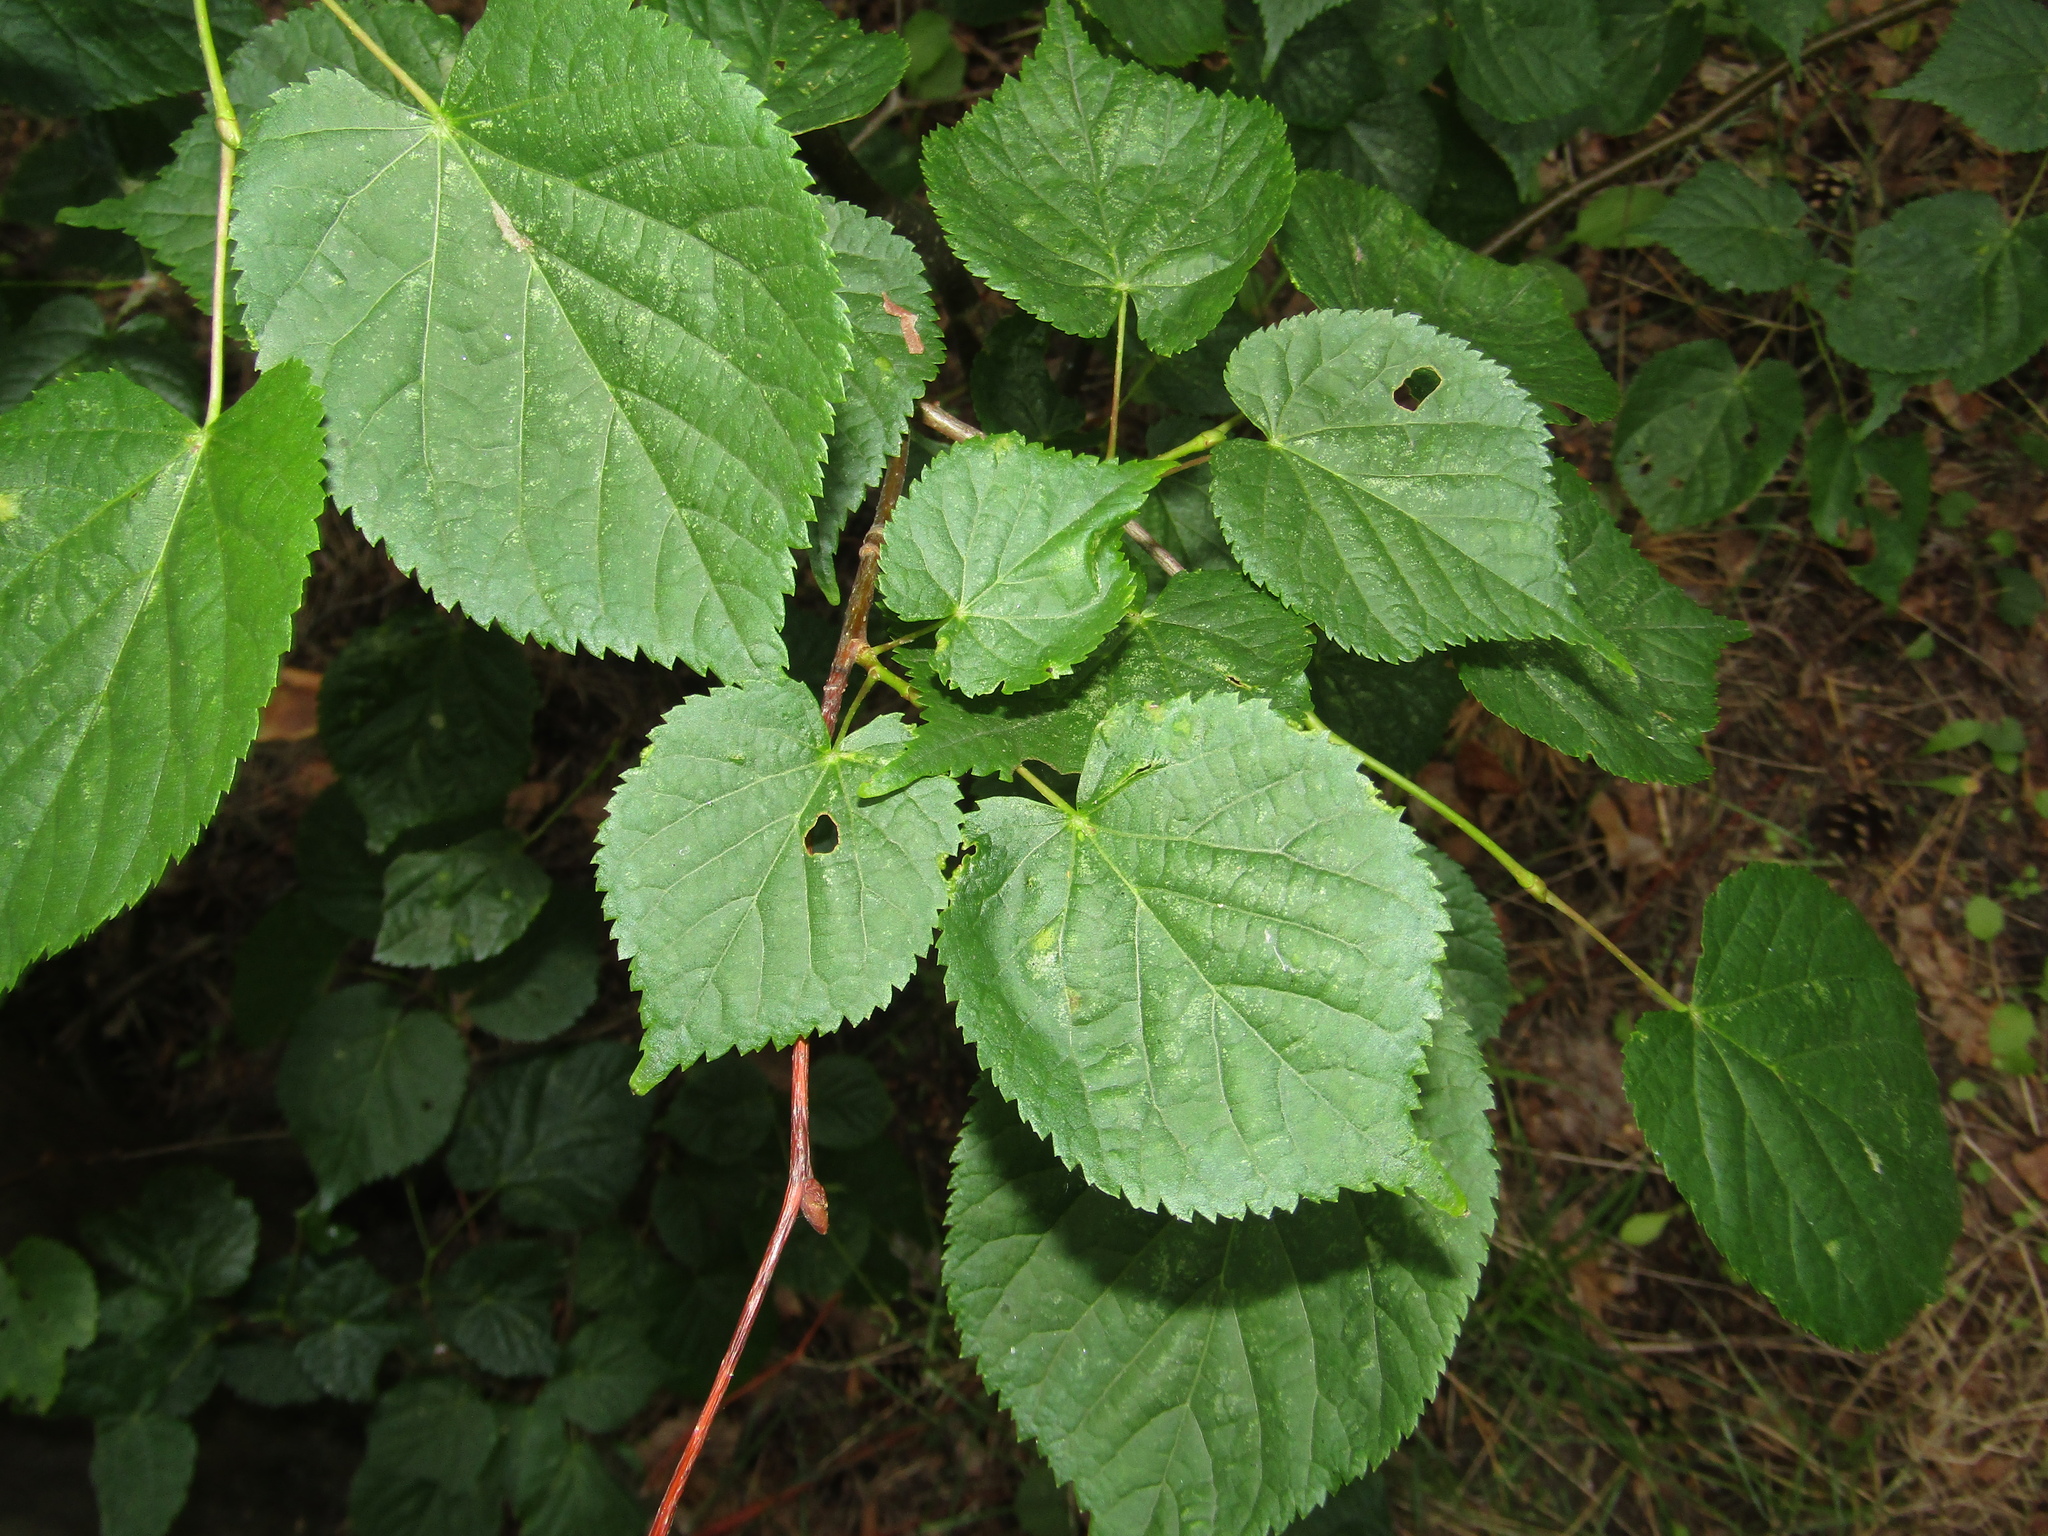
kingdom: Plantae
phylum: Tracheophyta
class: Magnoliopsida
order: Malvales
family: Malvaceae
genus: Tilia
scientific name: Tilia cordata
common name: Small-leaved lime
